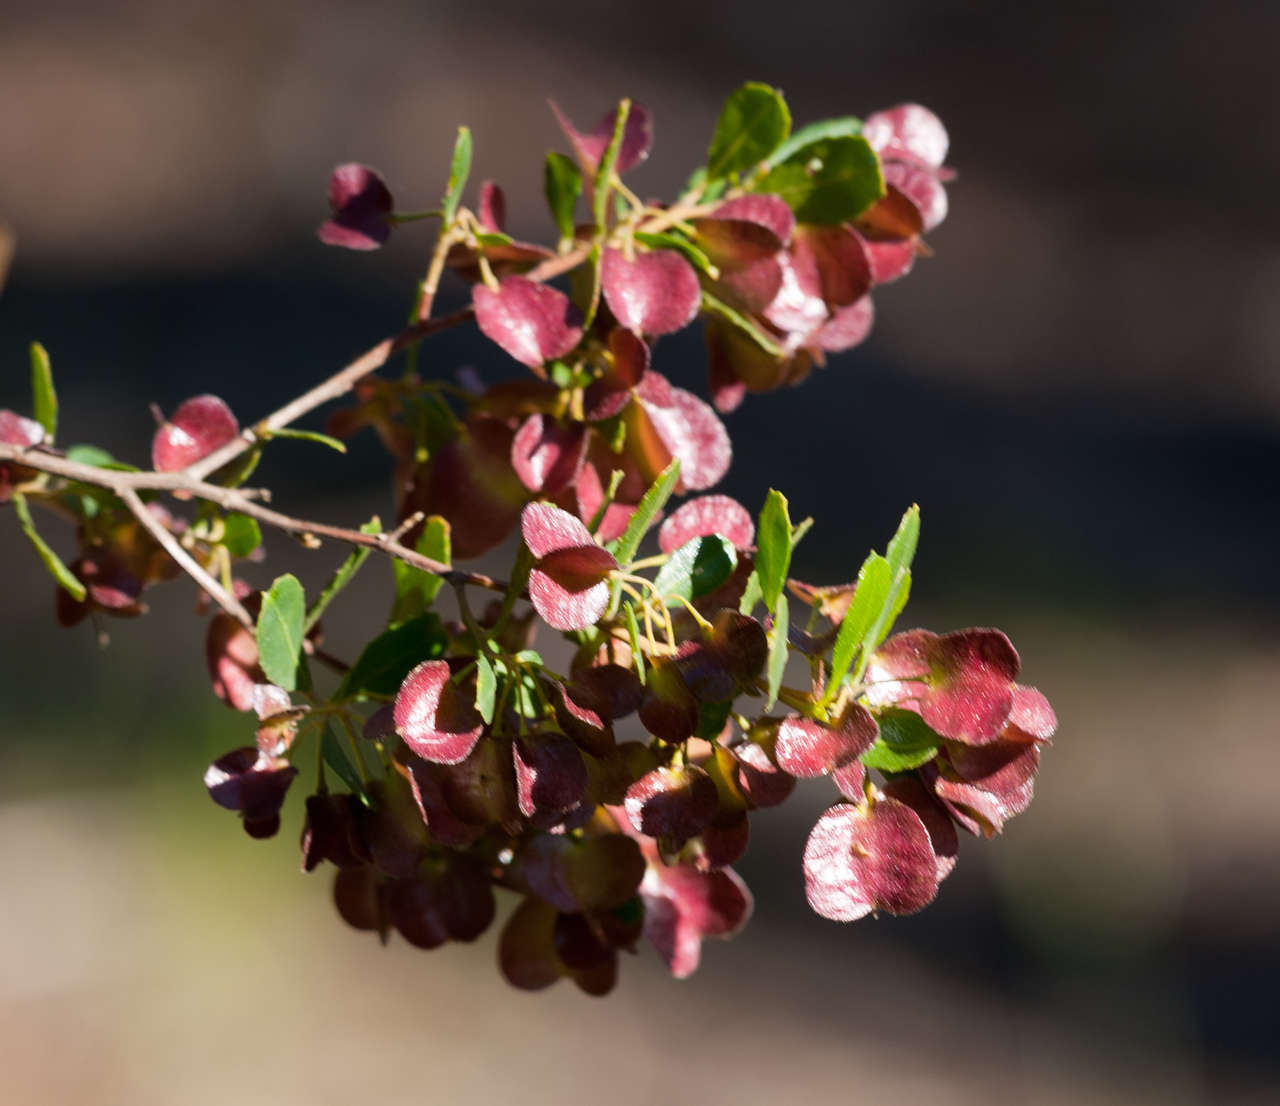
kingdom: Plantae
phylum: Tracheophyta
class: Magnoliopsida
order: Sapindales
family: Sapindaceae
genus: Dodonaea
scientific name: Dodonaea viscosa
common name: Hopbush
